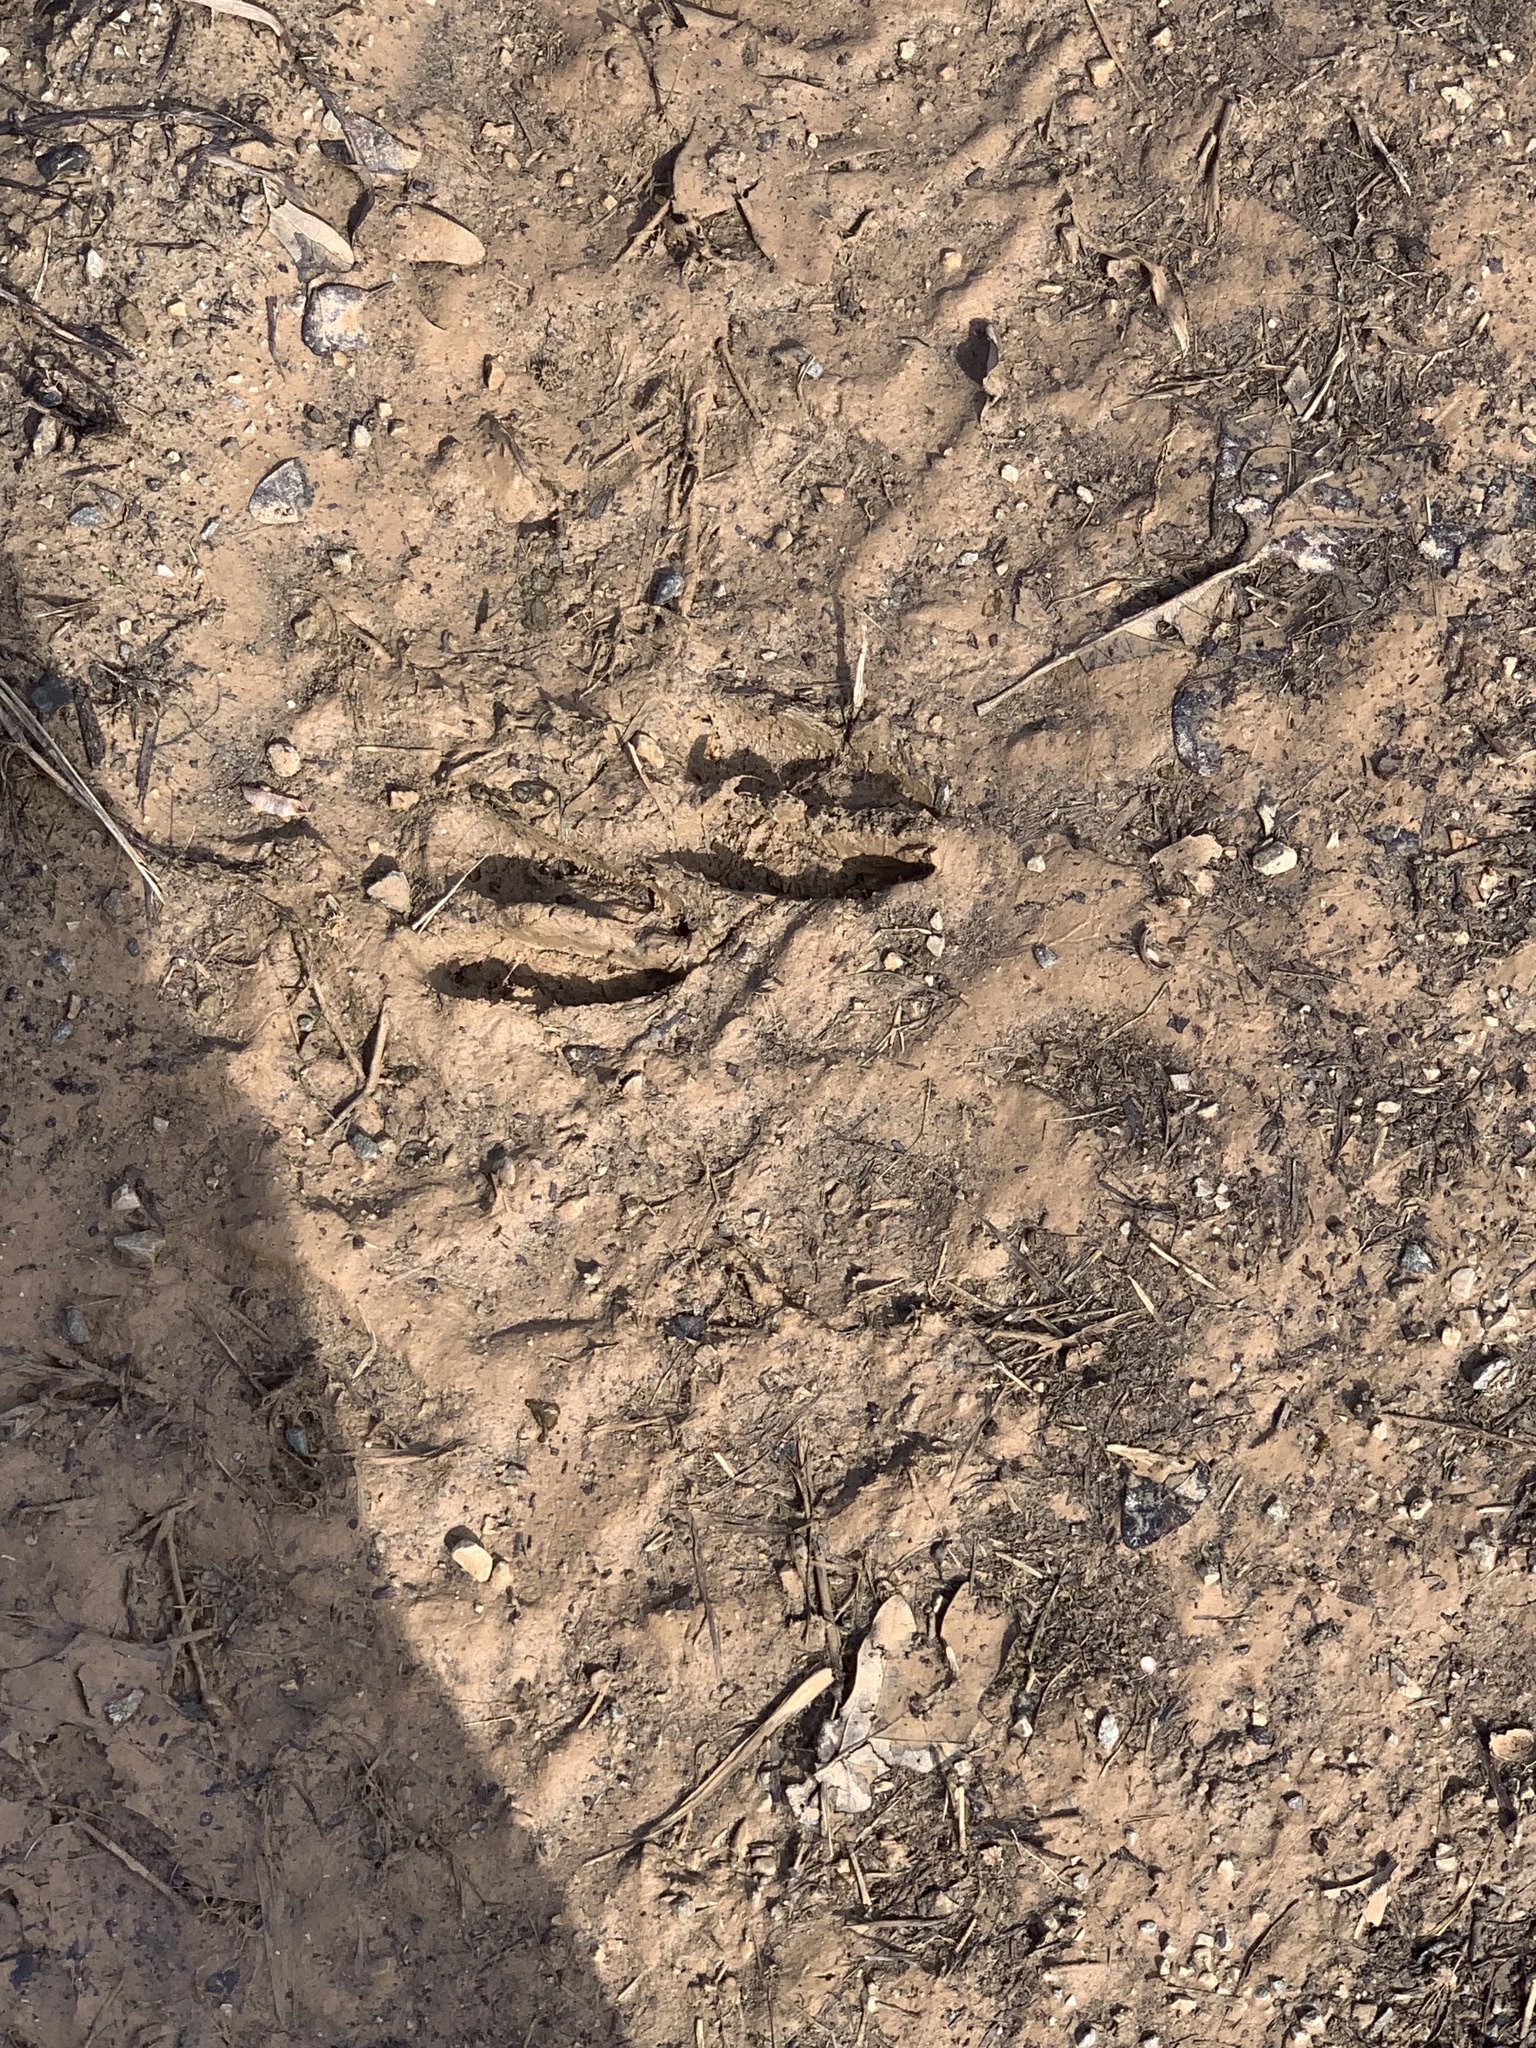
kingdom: Animalia
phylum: Chordata
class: Mammalia
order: Artiodactyla
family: Cervidae
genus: Odocoileus
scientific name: Odocoileus virginianus
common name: White-tailed deer
